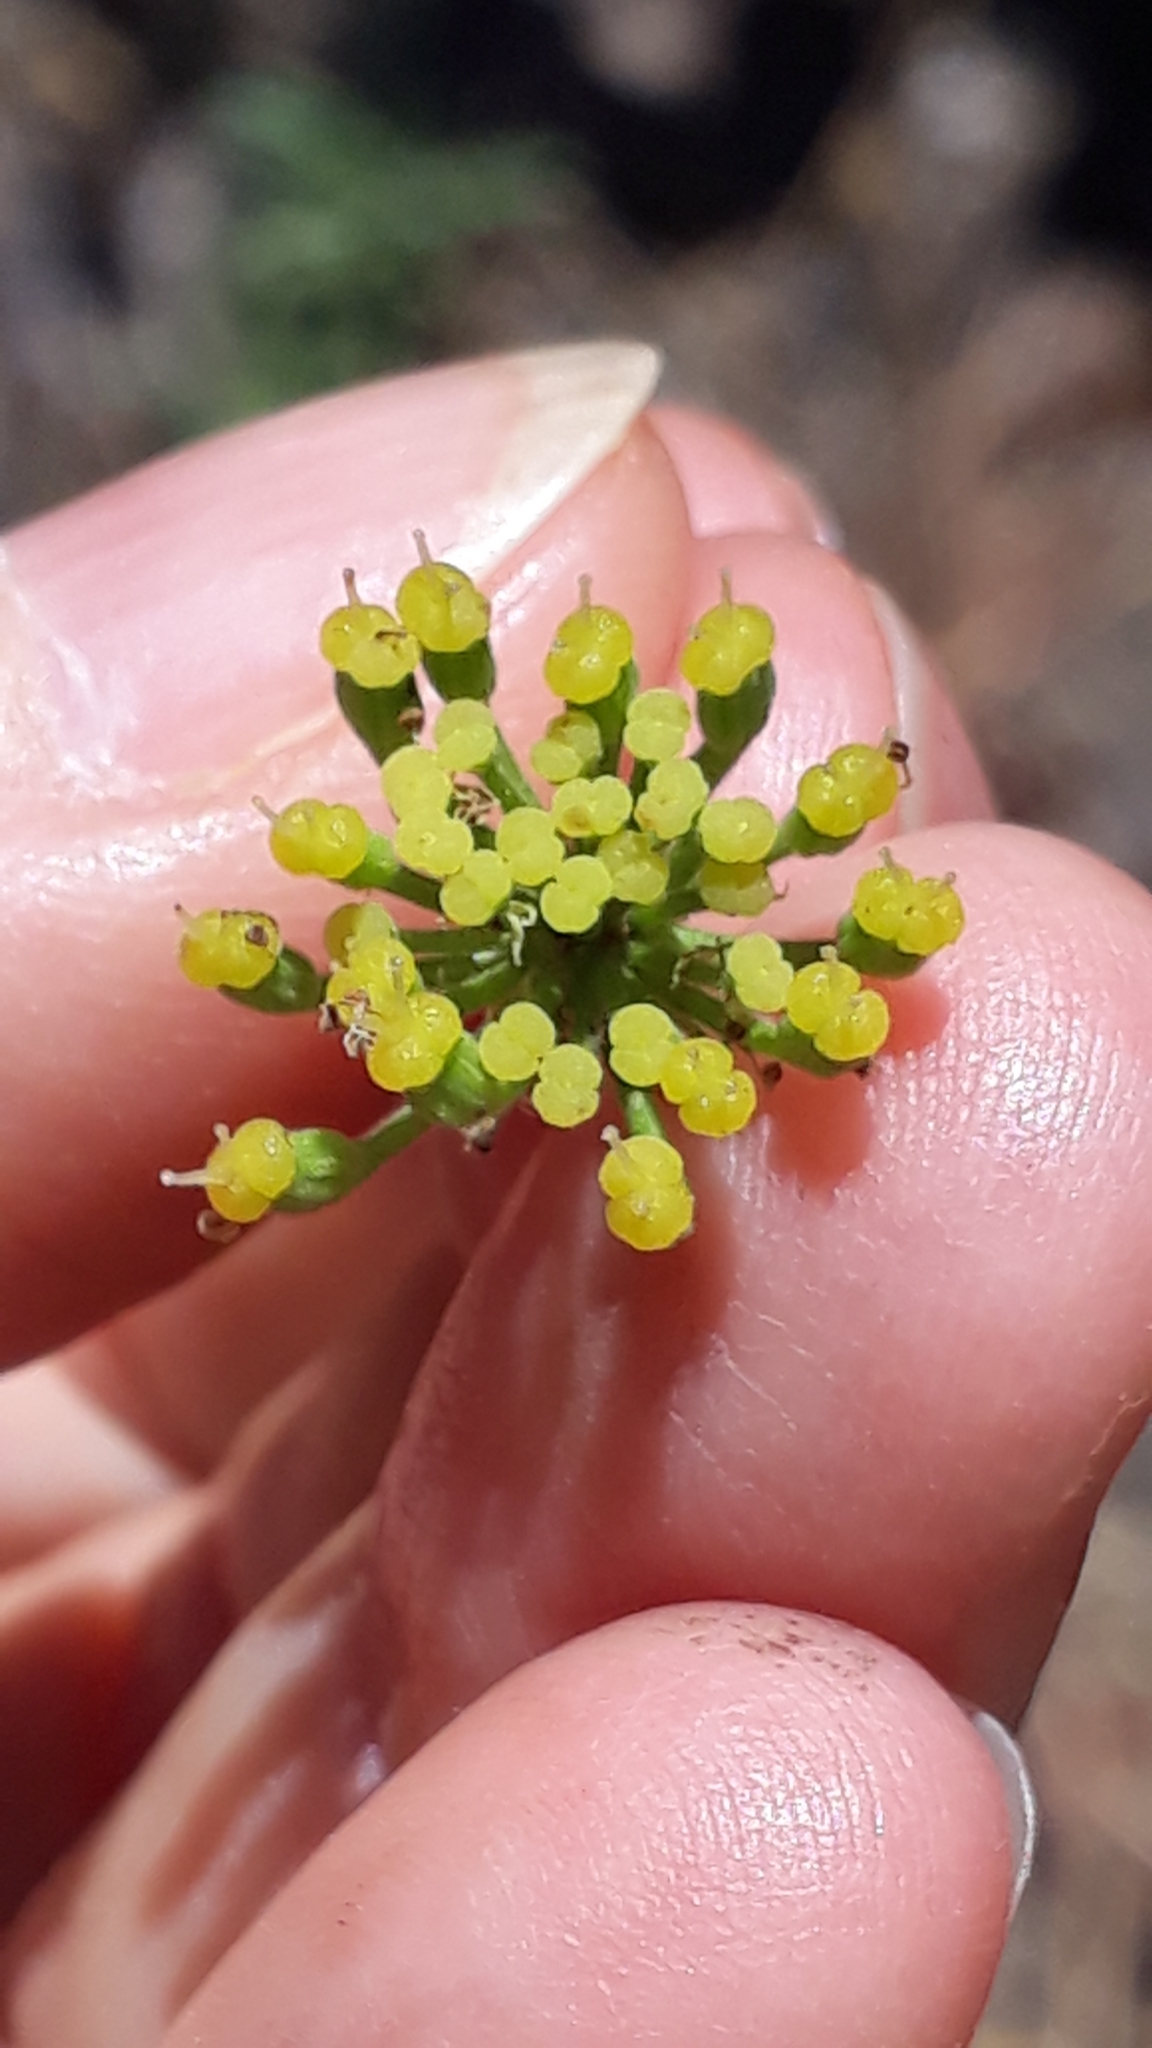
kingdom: Plantae
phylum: Tracheophyta
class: Magnoliopsida
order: Apiales
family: Apiaceae
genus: Athamanta
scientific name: Athamanta montana
